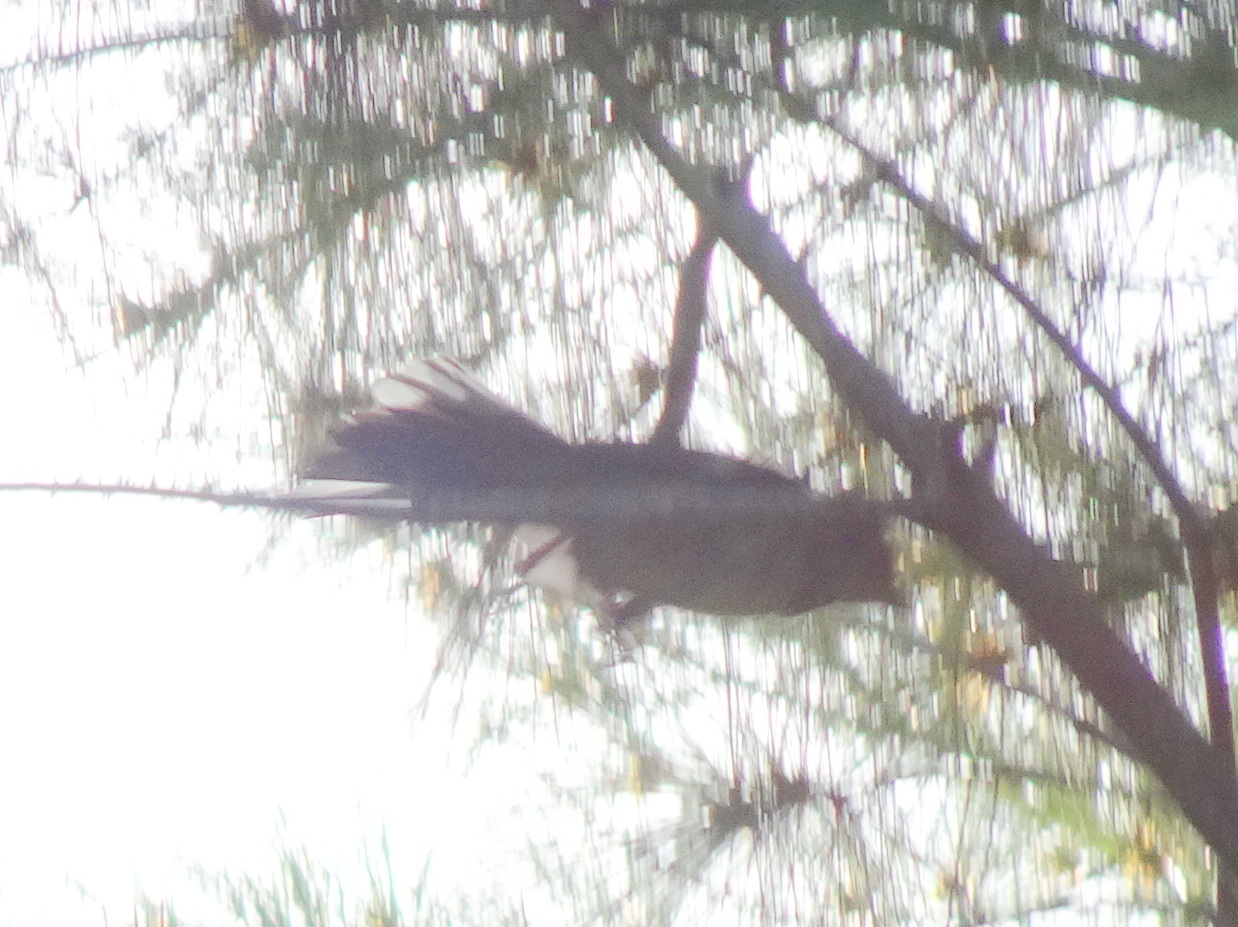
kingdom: Animalia
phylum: Chordata
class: Aves
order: Passeriformes
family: Passerellidae
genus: Pipilo
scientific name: Pipilo erythrophthalmus
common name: Eastern towhee
